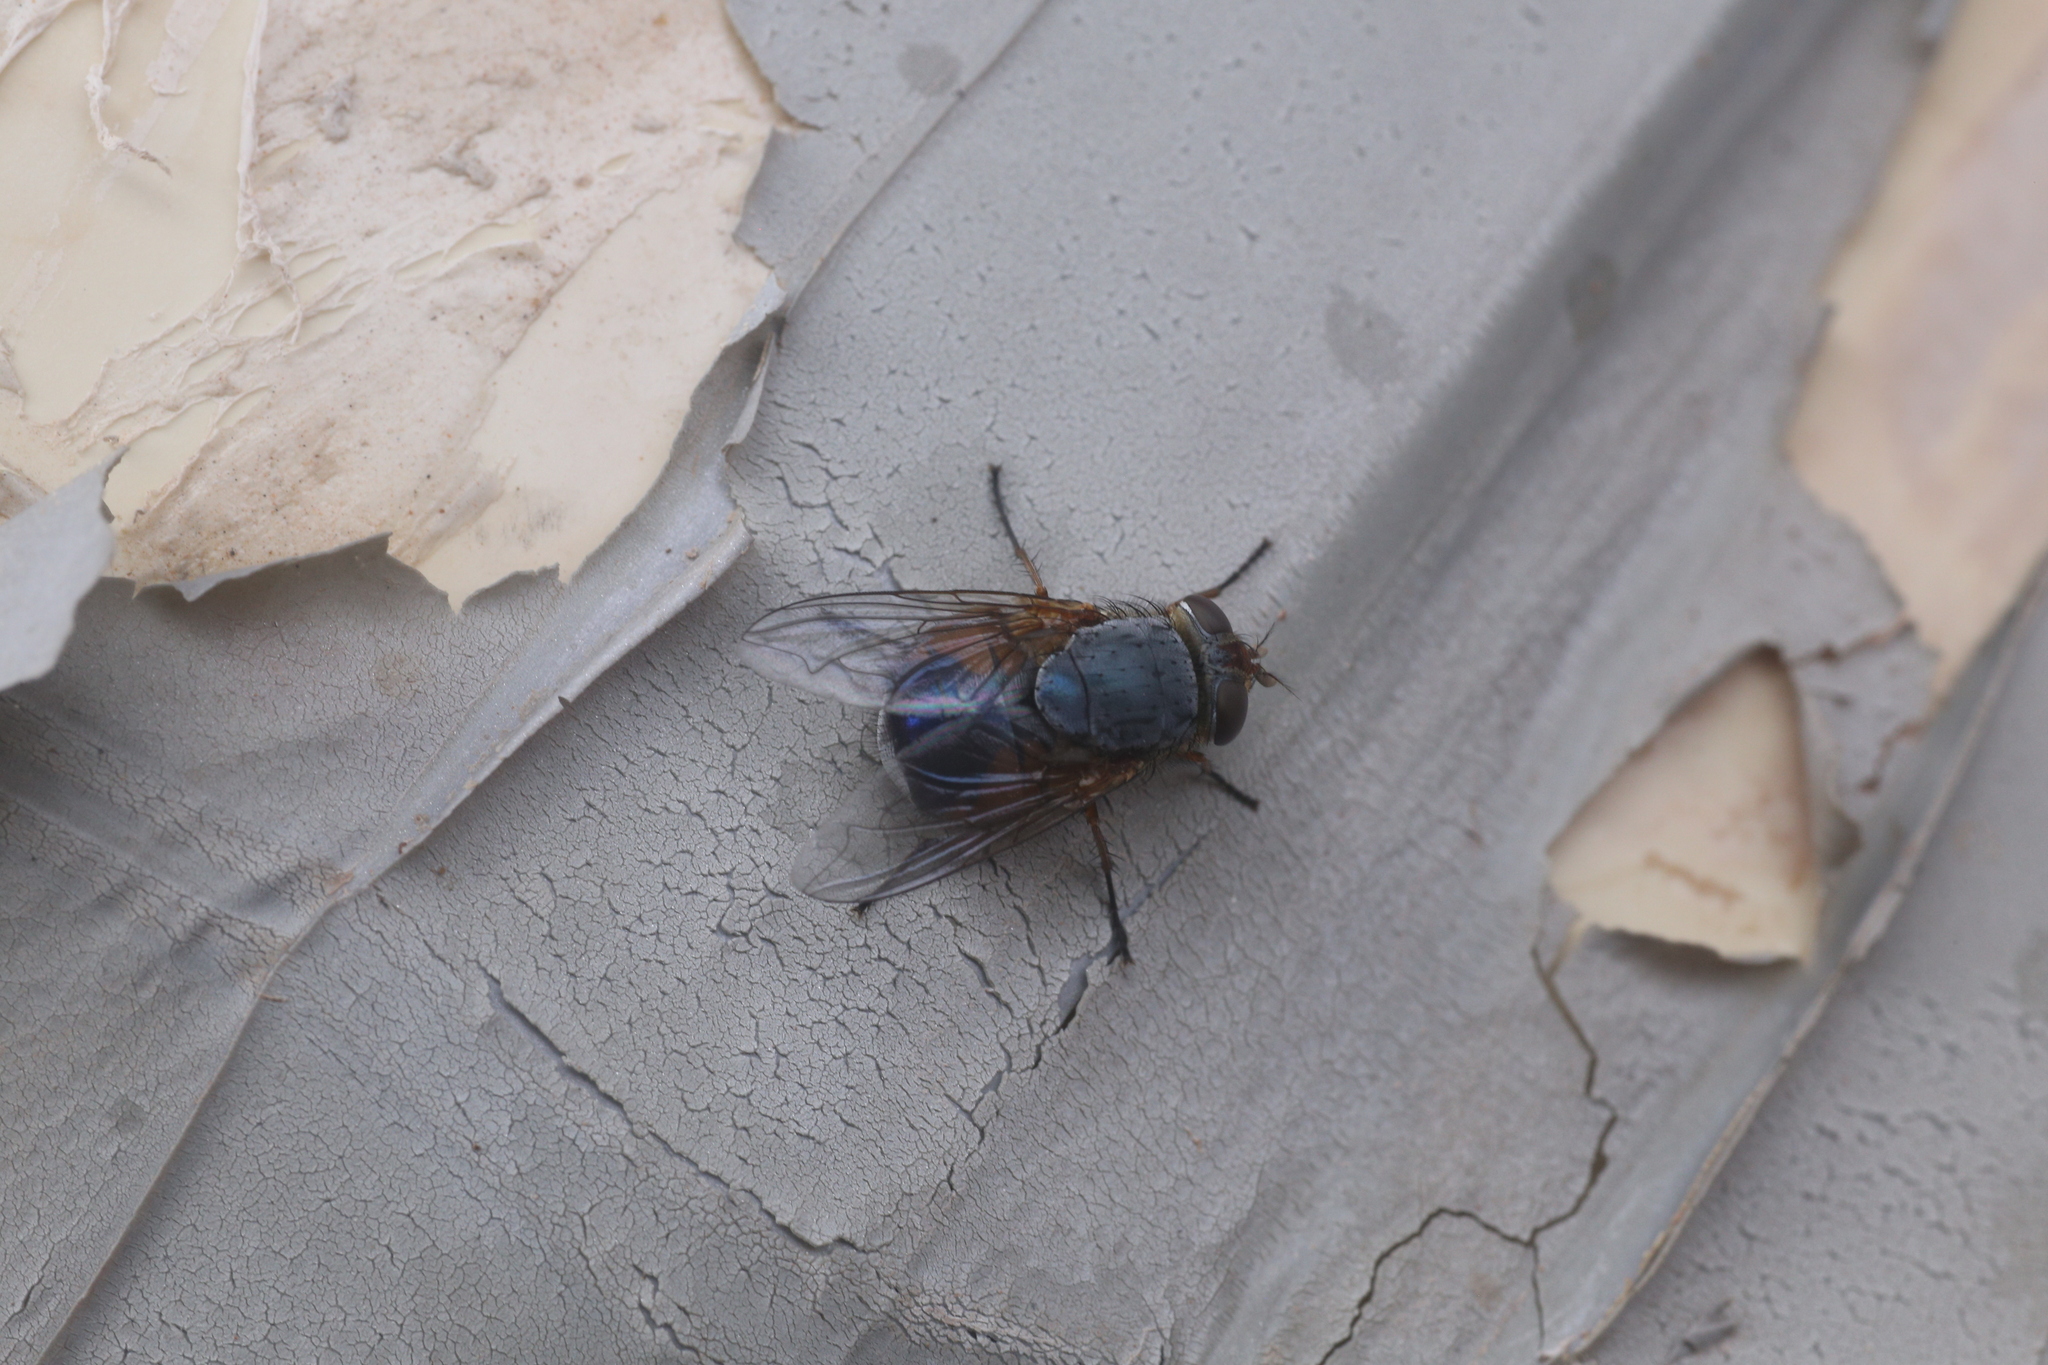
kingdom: Animalia
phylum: Arthropoda
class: Insecta
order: Diptera
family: Calliphoridae
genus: Calliphora
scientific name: Calliphora dubia
